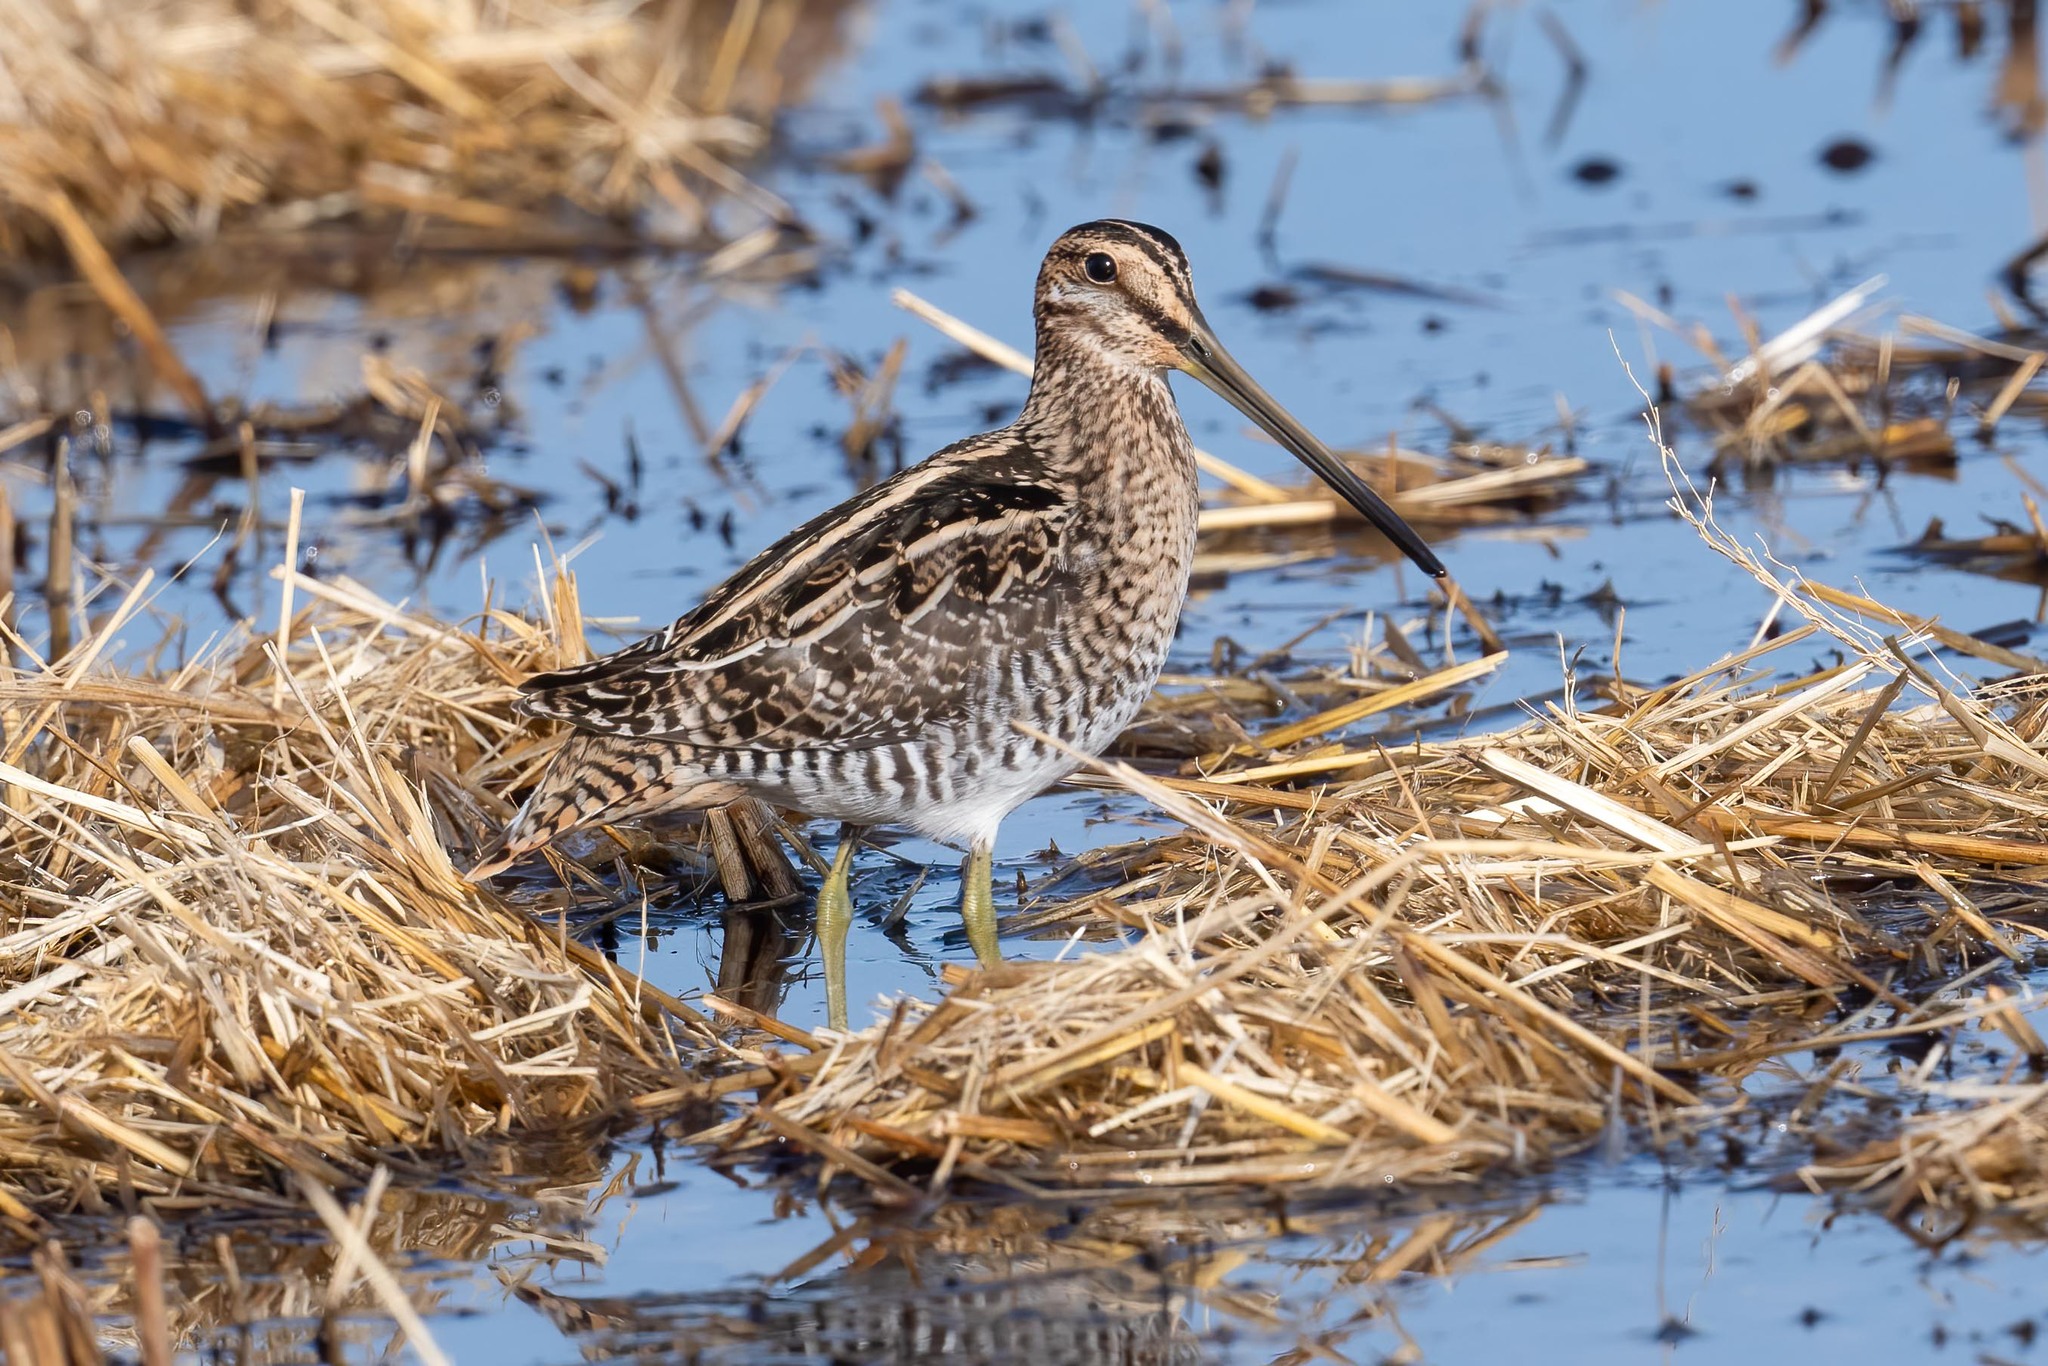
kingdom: Animalia
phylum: Chordata
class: Aves
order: Charadriiformes
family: Scolopacidae
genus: Gallinago
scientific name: Gallinago delicata
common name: Wilson's snipe
